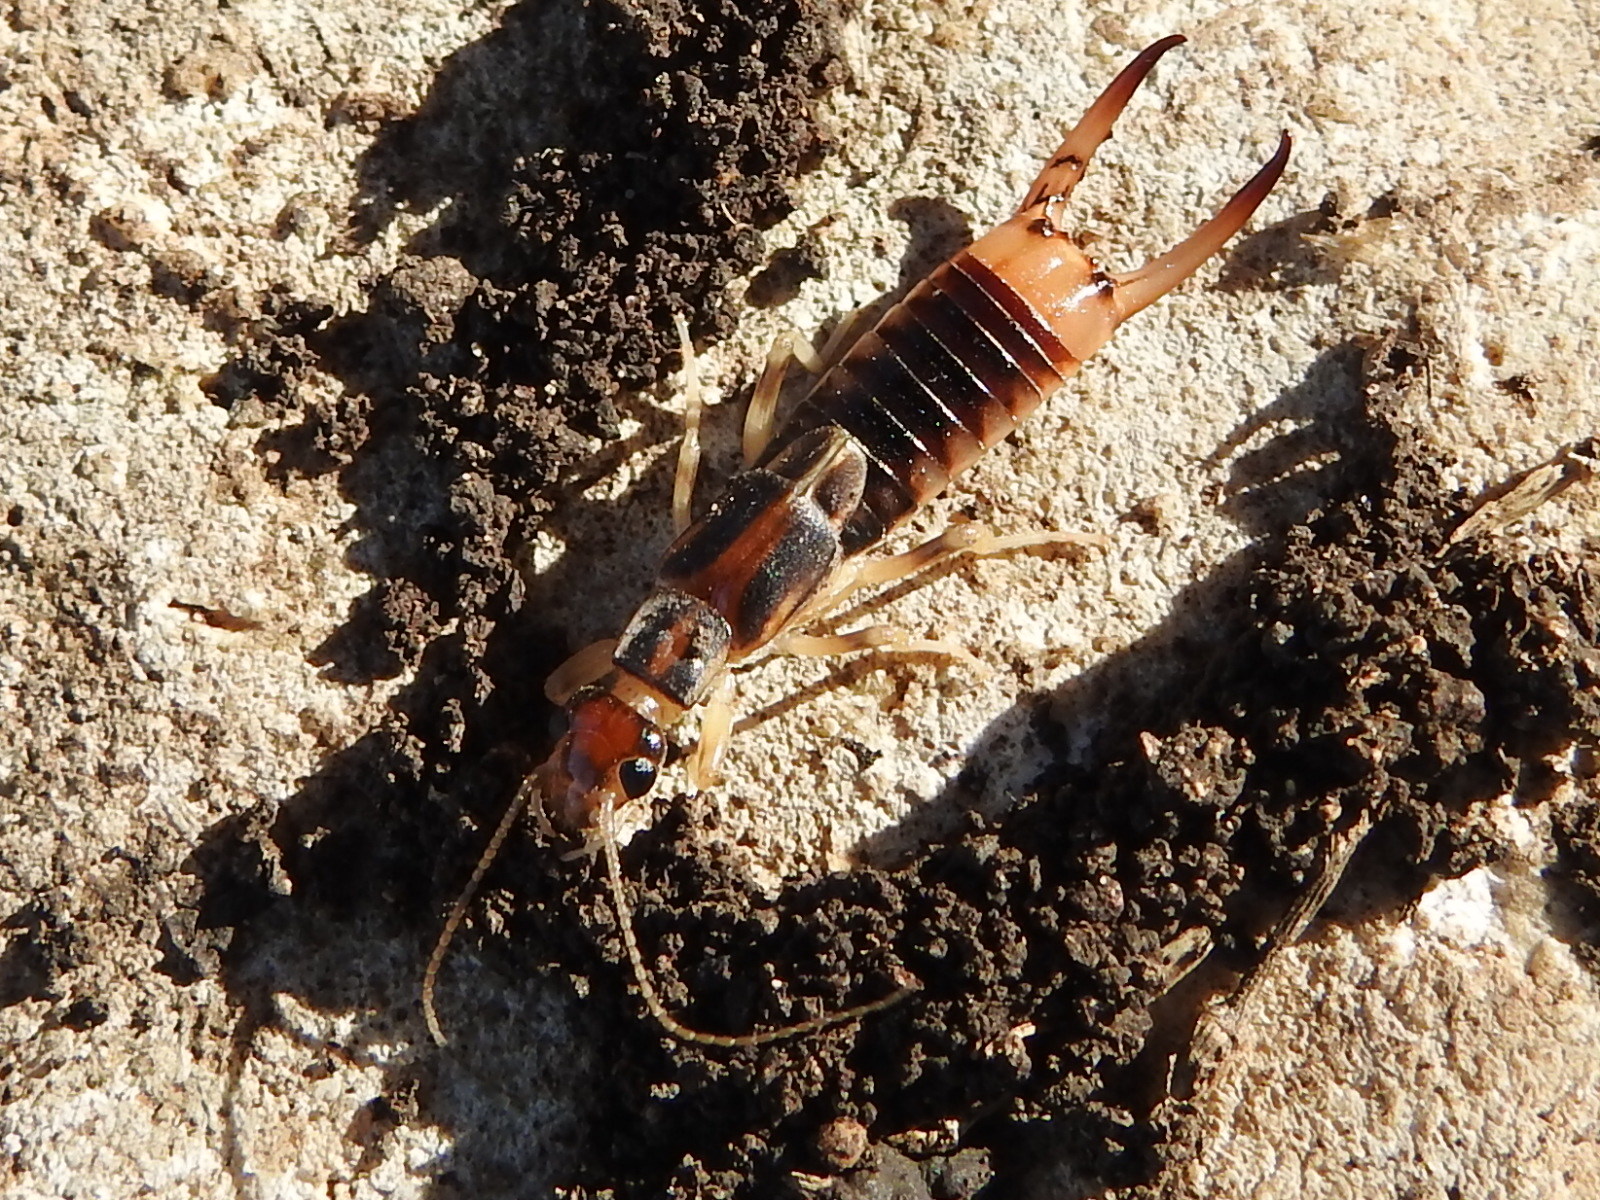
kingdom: Animalia
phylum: Arthropoda
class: Insecta
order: Dermaptera
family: Labiduridae
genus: Labidura
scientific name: Labidura riparia
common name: Striped earwig
